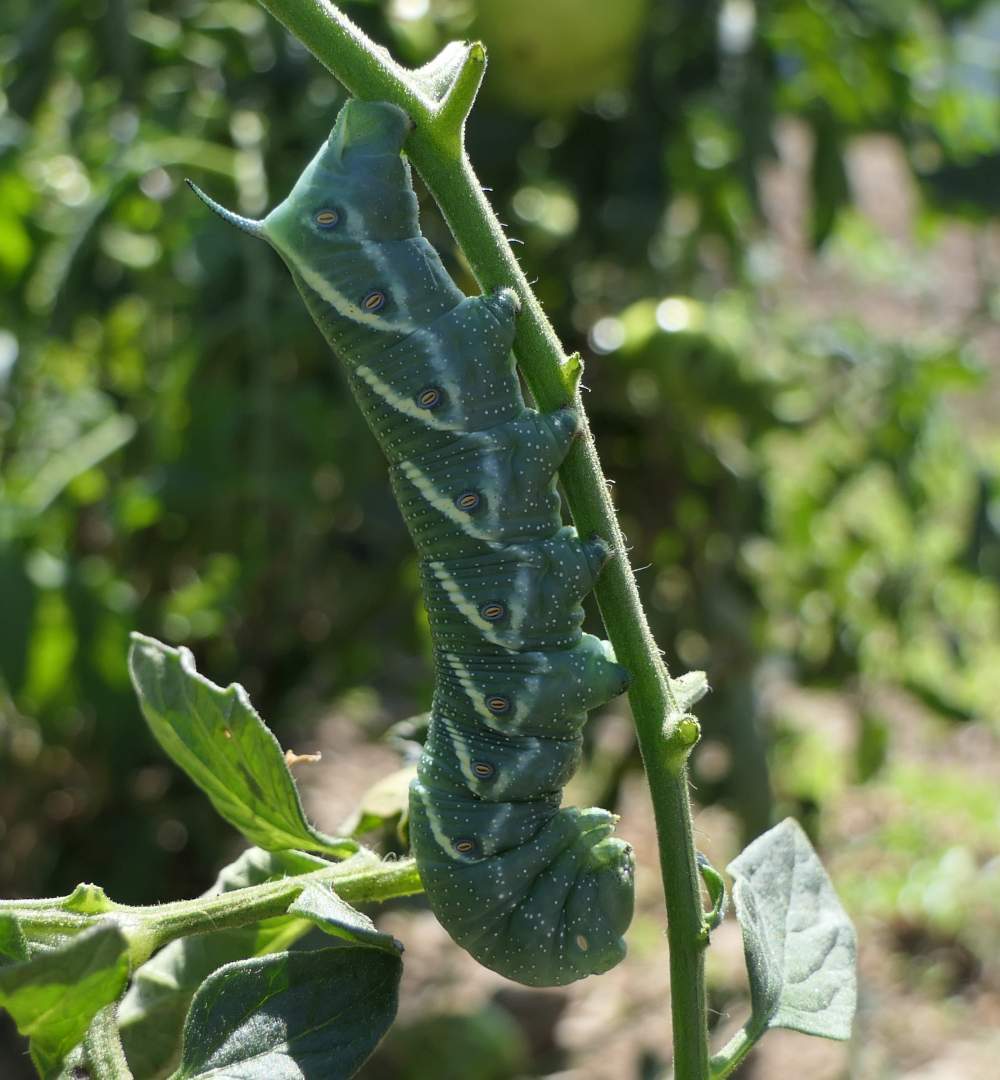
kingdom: Animalia
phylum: Arthropoda
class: Insecta
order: Lepidoptera
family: Sphingidae
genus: Manduca
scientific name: Manduca quinquemaculatus
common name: Five-spotted hawk-moth
